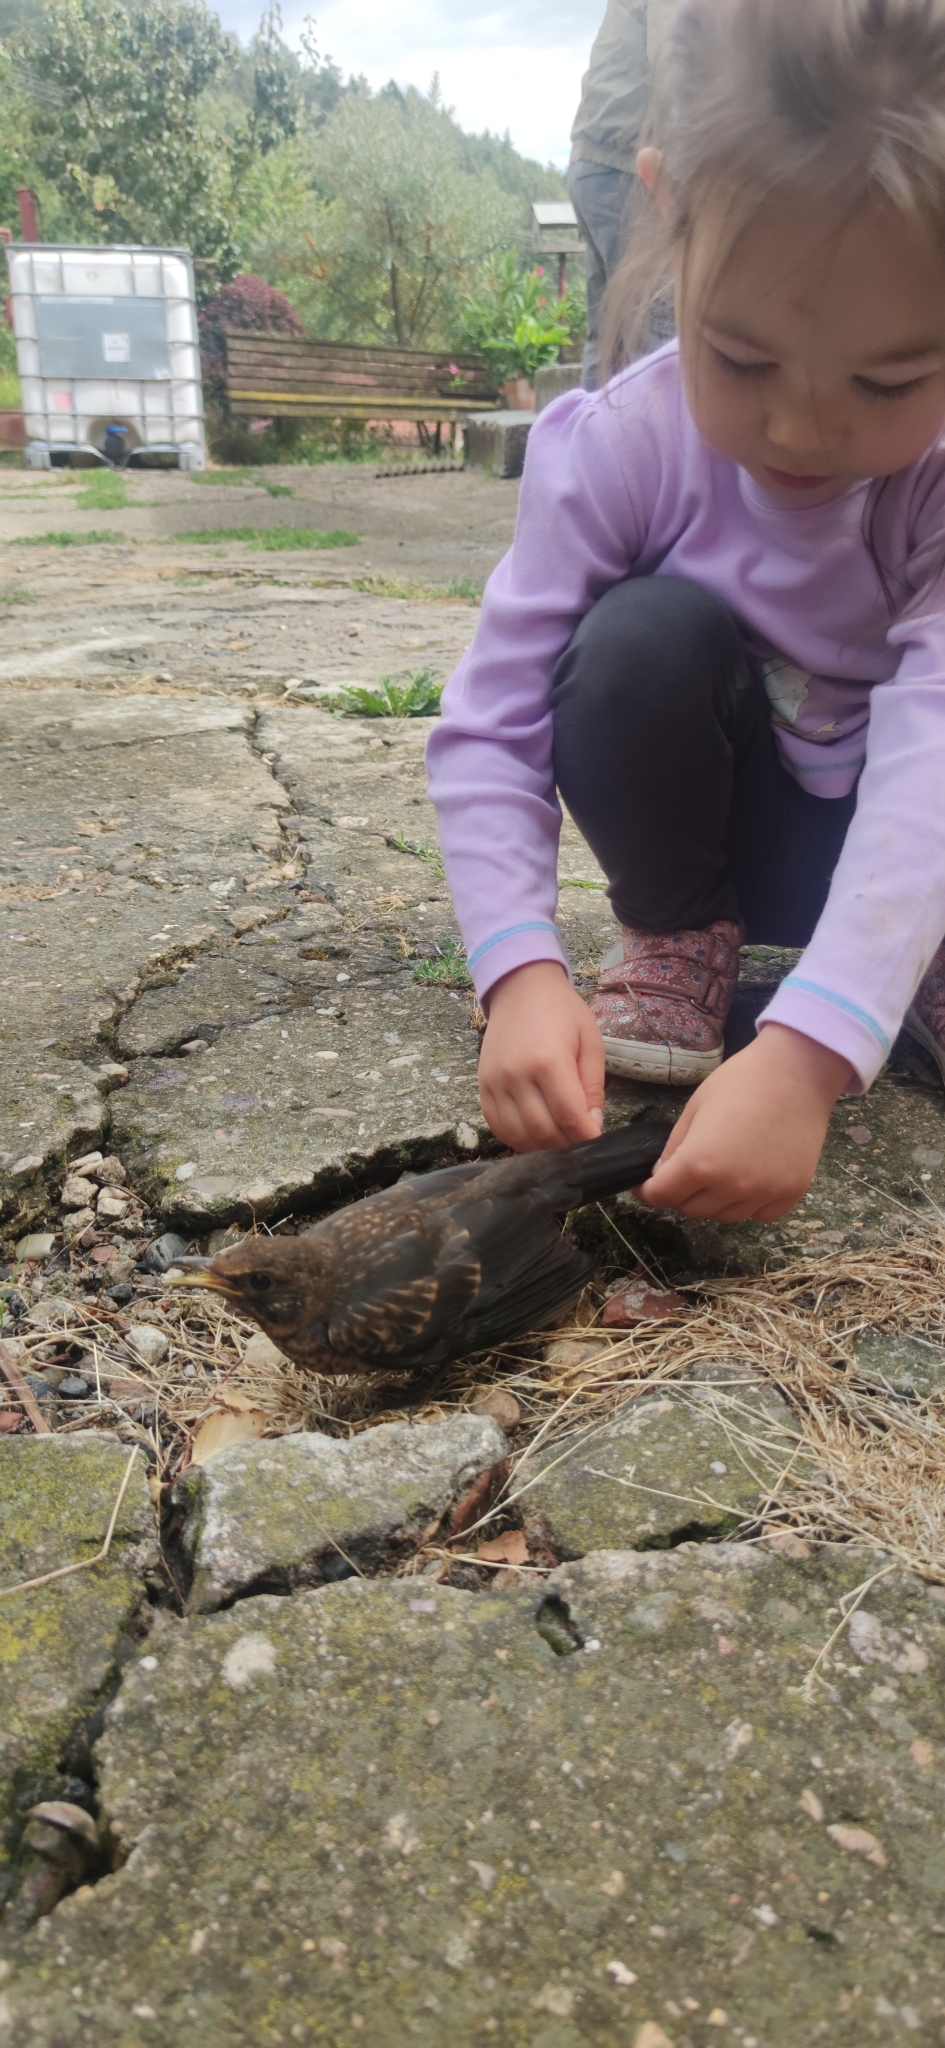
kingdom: Animalia
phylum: Chordata
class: Aves
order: Passeriformes
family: Turdidae
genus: Turdus
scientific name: Turdus merula
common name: Common blackbird
